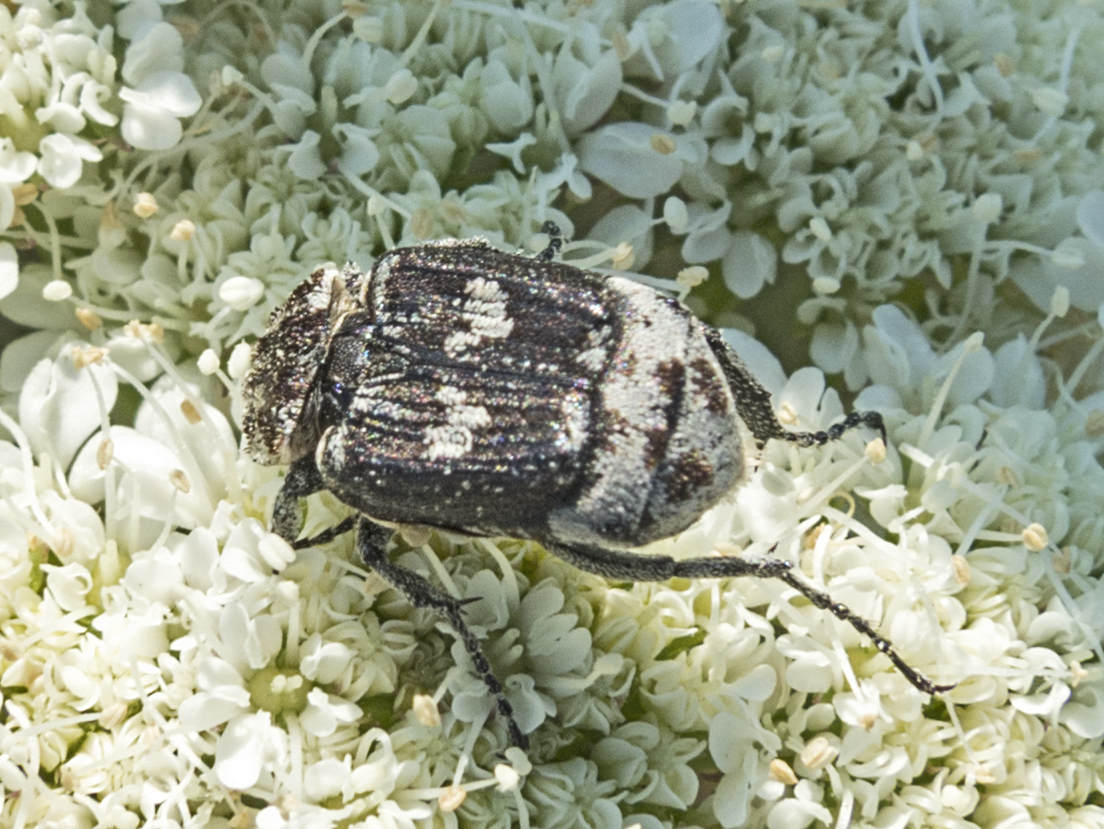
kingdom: Animalia
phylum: Arthropoda
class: Insecta
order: Coleoptera
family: Scarabaeidae
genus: Valgus
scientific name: Valgus hemipterus
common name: Bug flower chafer
